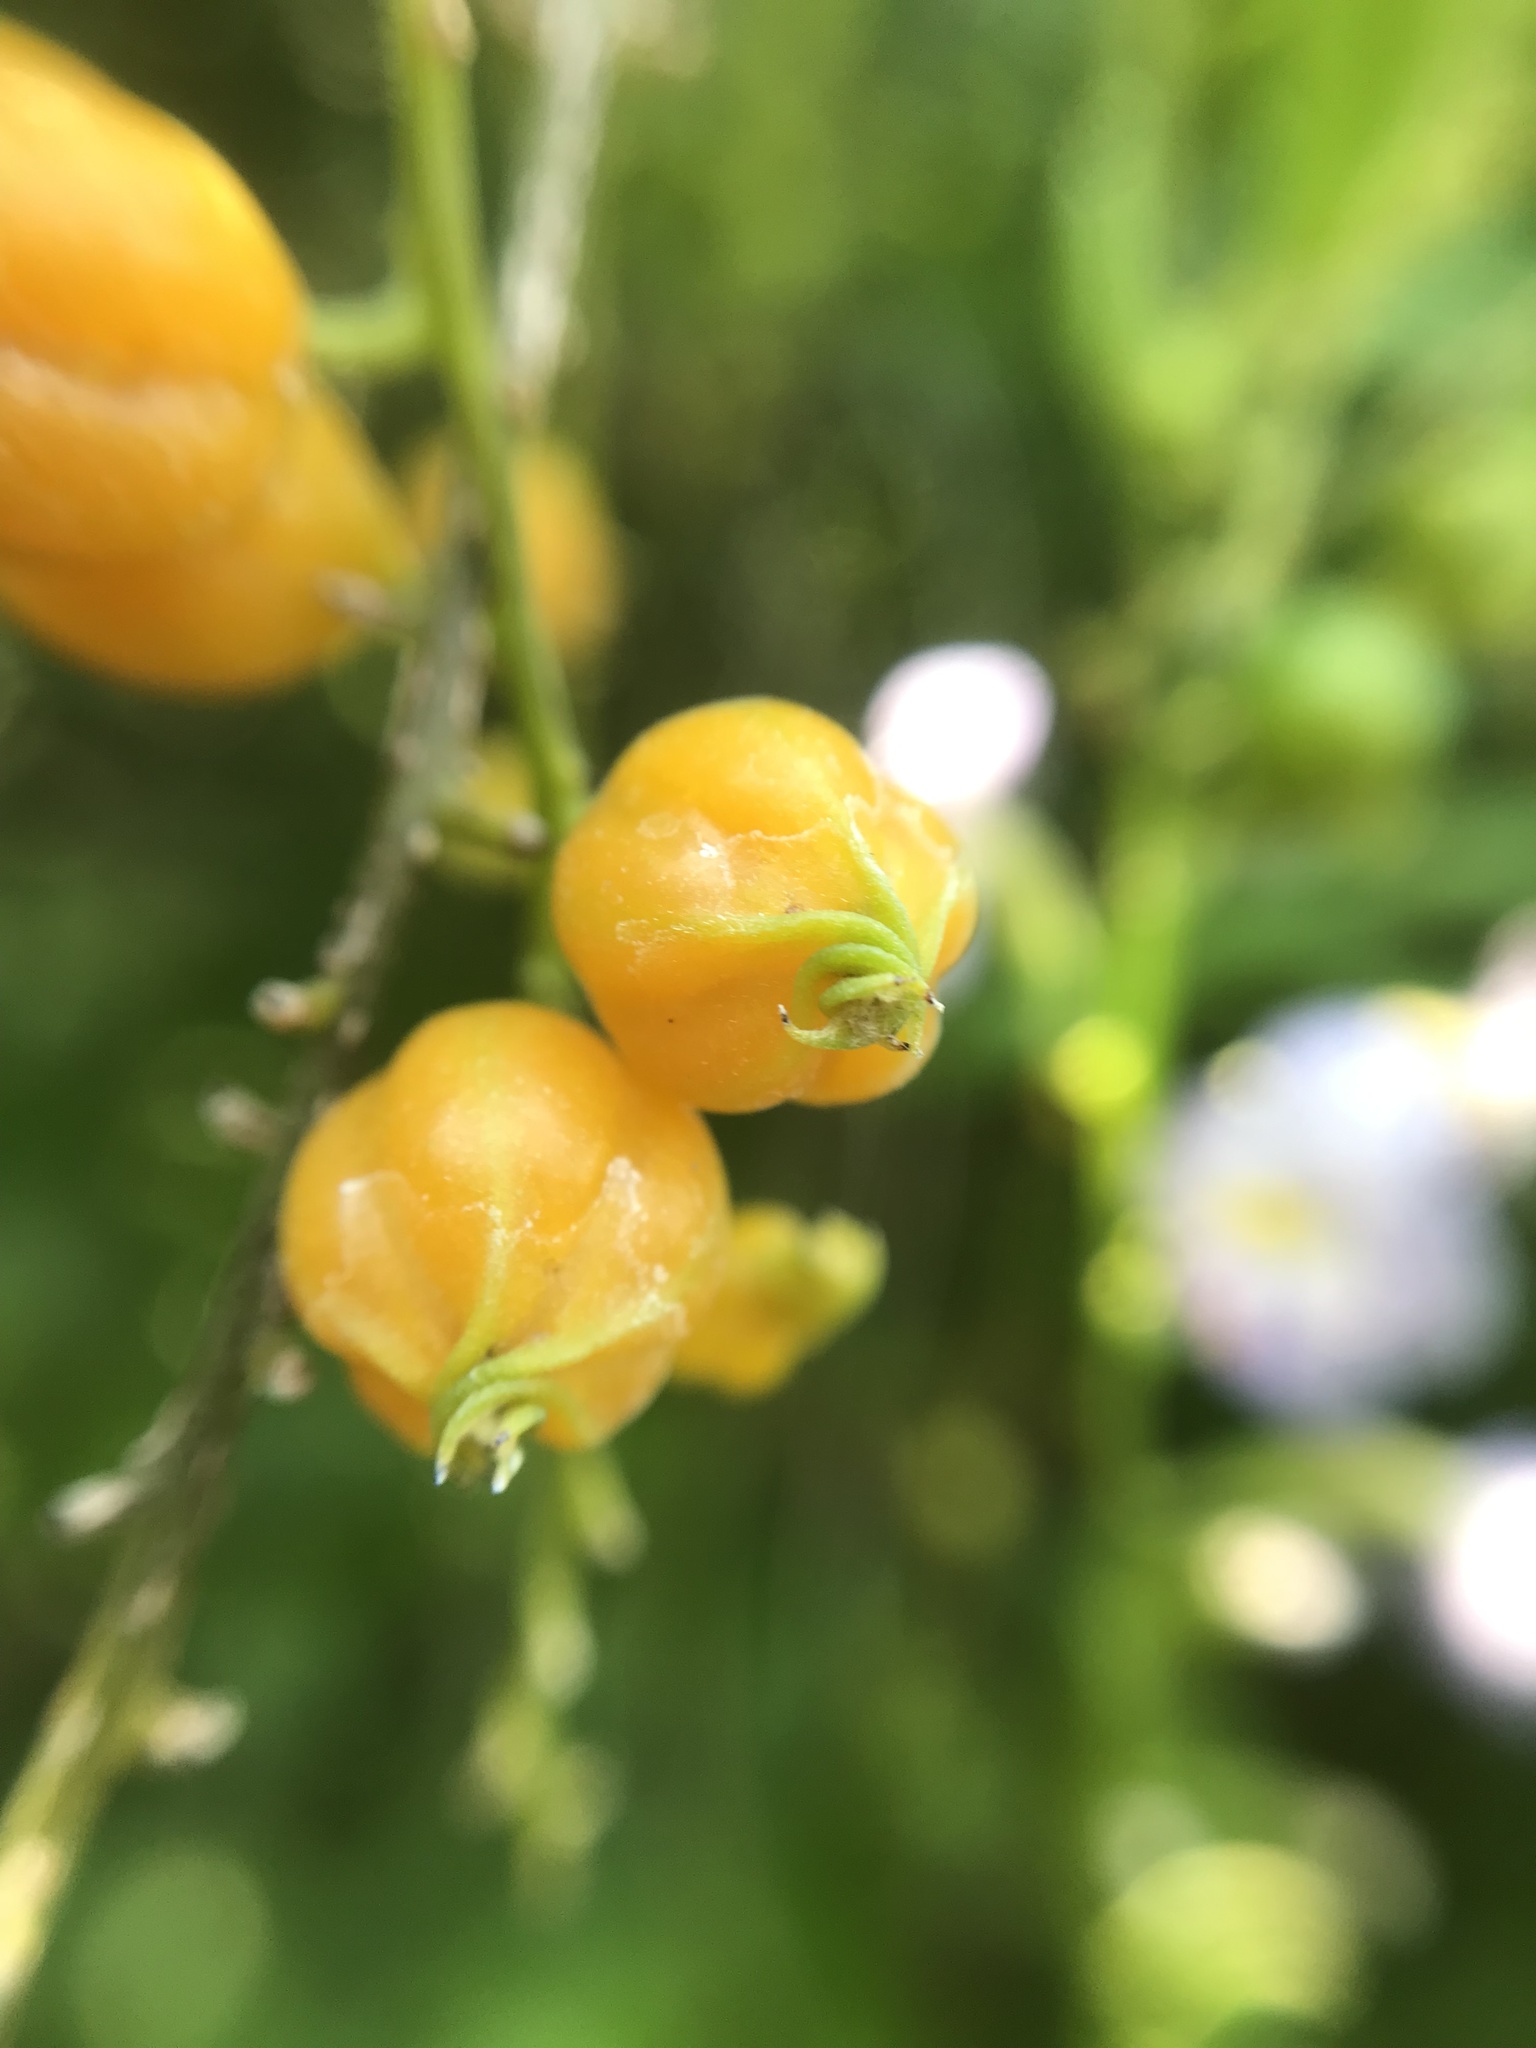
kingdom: Plantae
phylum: Tracheophyta
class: Magnoliopsida
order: Lamiales
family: Verbenaceae
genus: Duranta
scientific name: Duranta erecta
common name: Golden dewdrops
